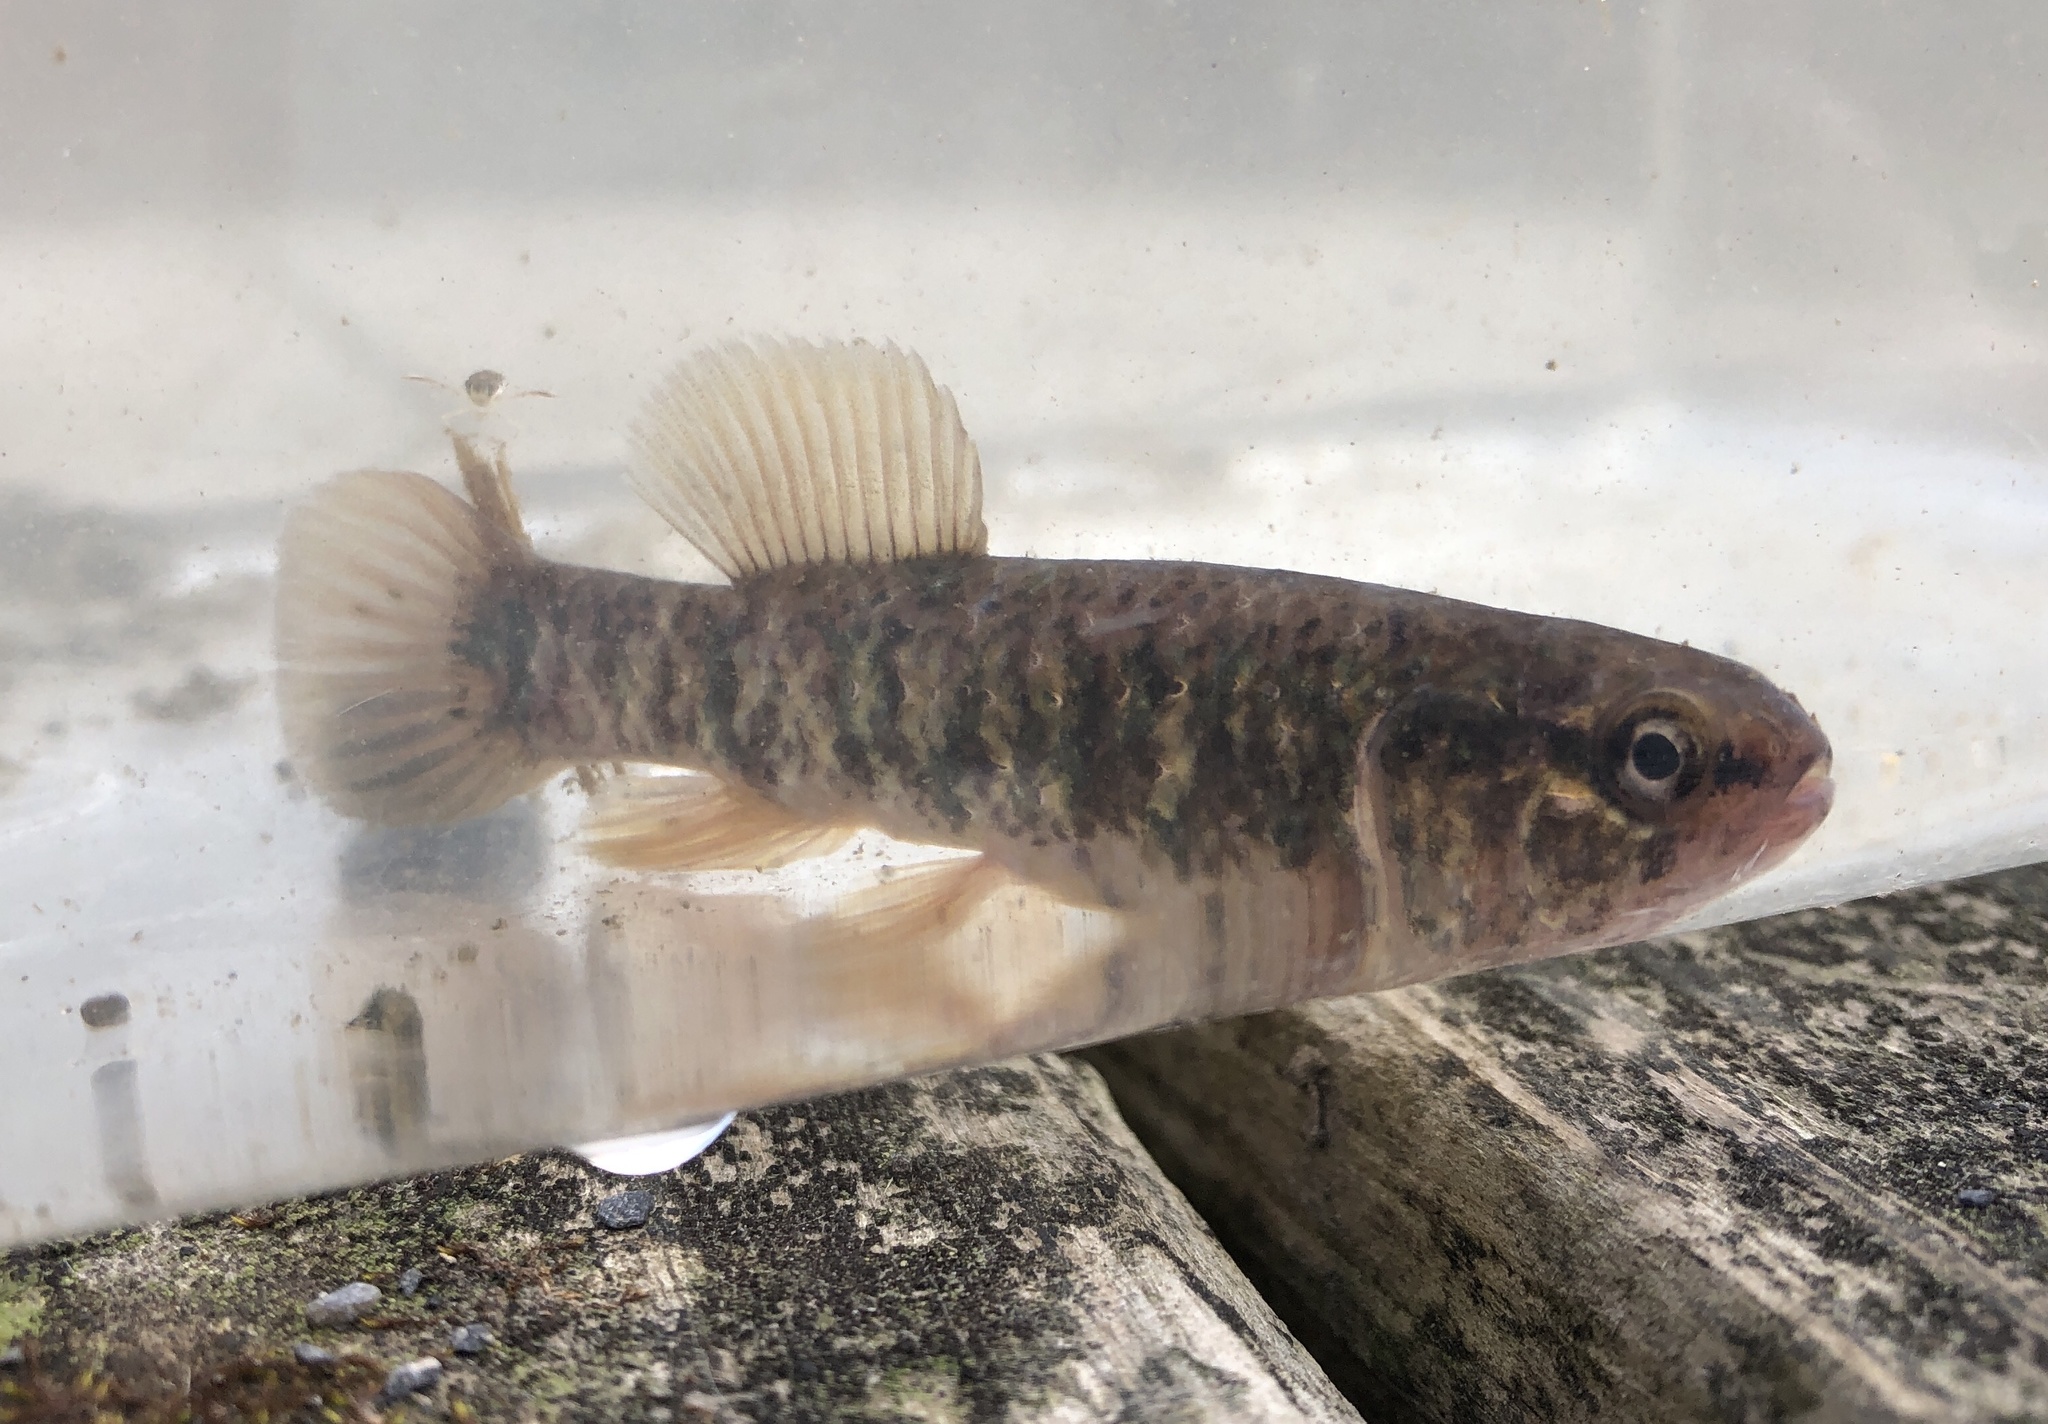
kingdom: Animalia
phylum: Chordata
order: Esociformes
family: Umbridae
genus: Umbra
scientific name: Umbra limi
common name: Central mudminnow
